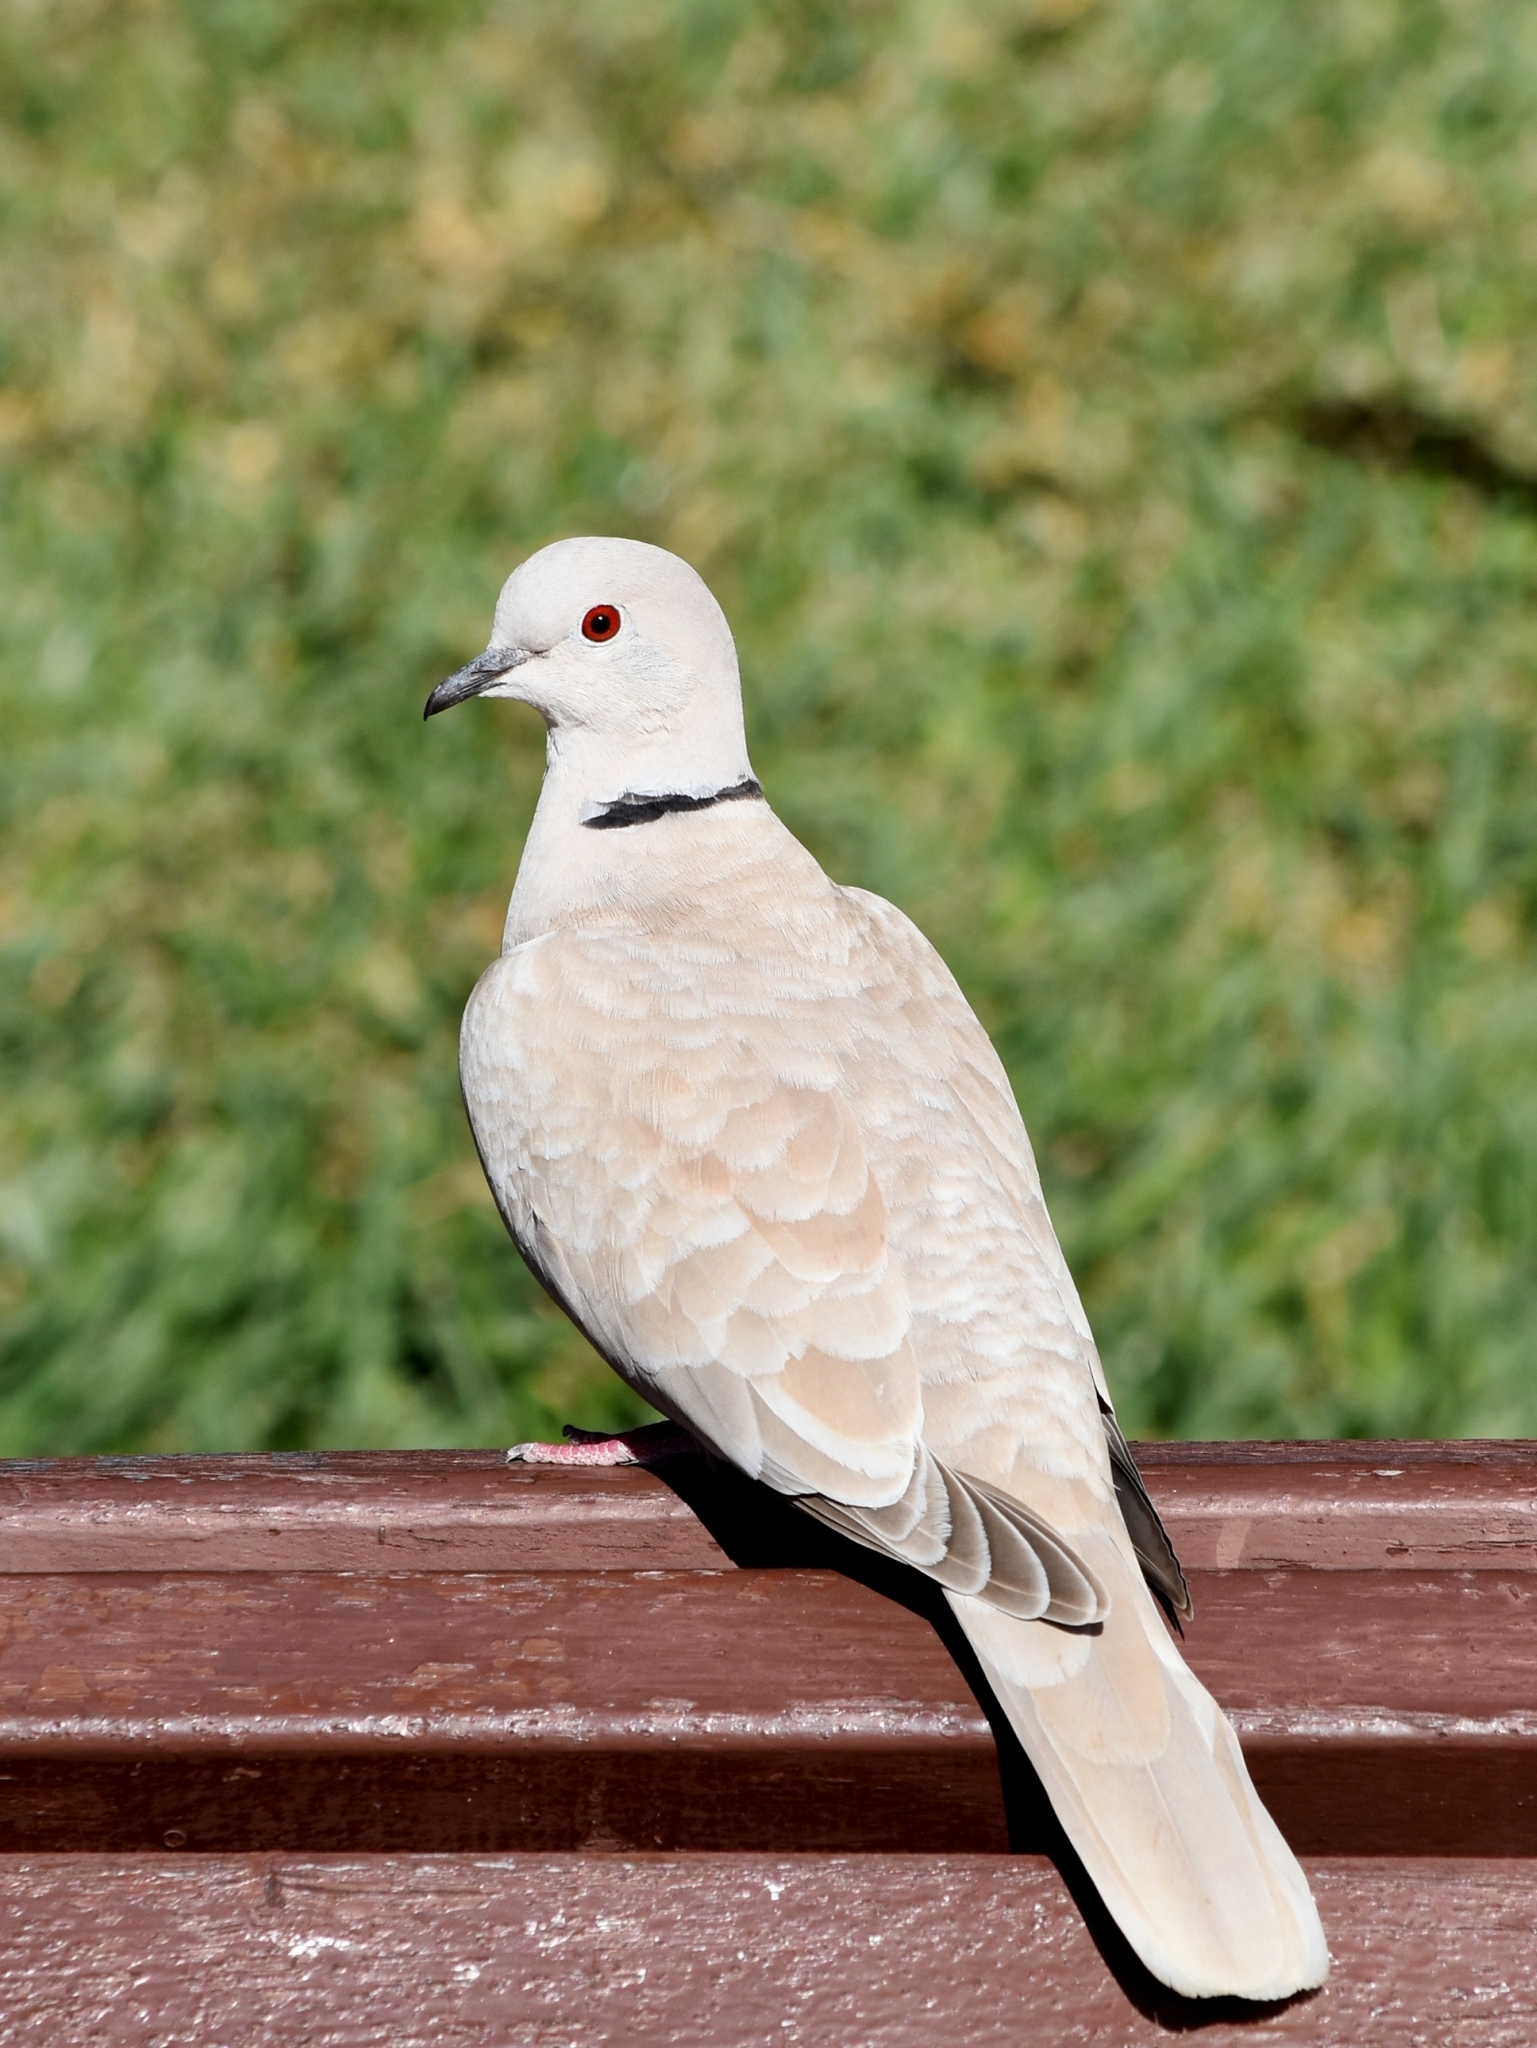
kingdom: Animalia
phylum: Chordata
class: Aves
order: Columbiformes
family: Columbidae
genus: Streptopelia
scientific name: Streptopelia decaocto
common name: Eurasian collared dove
